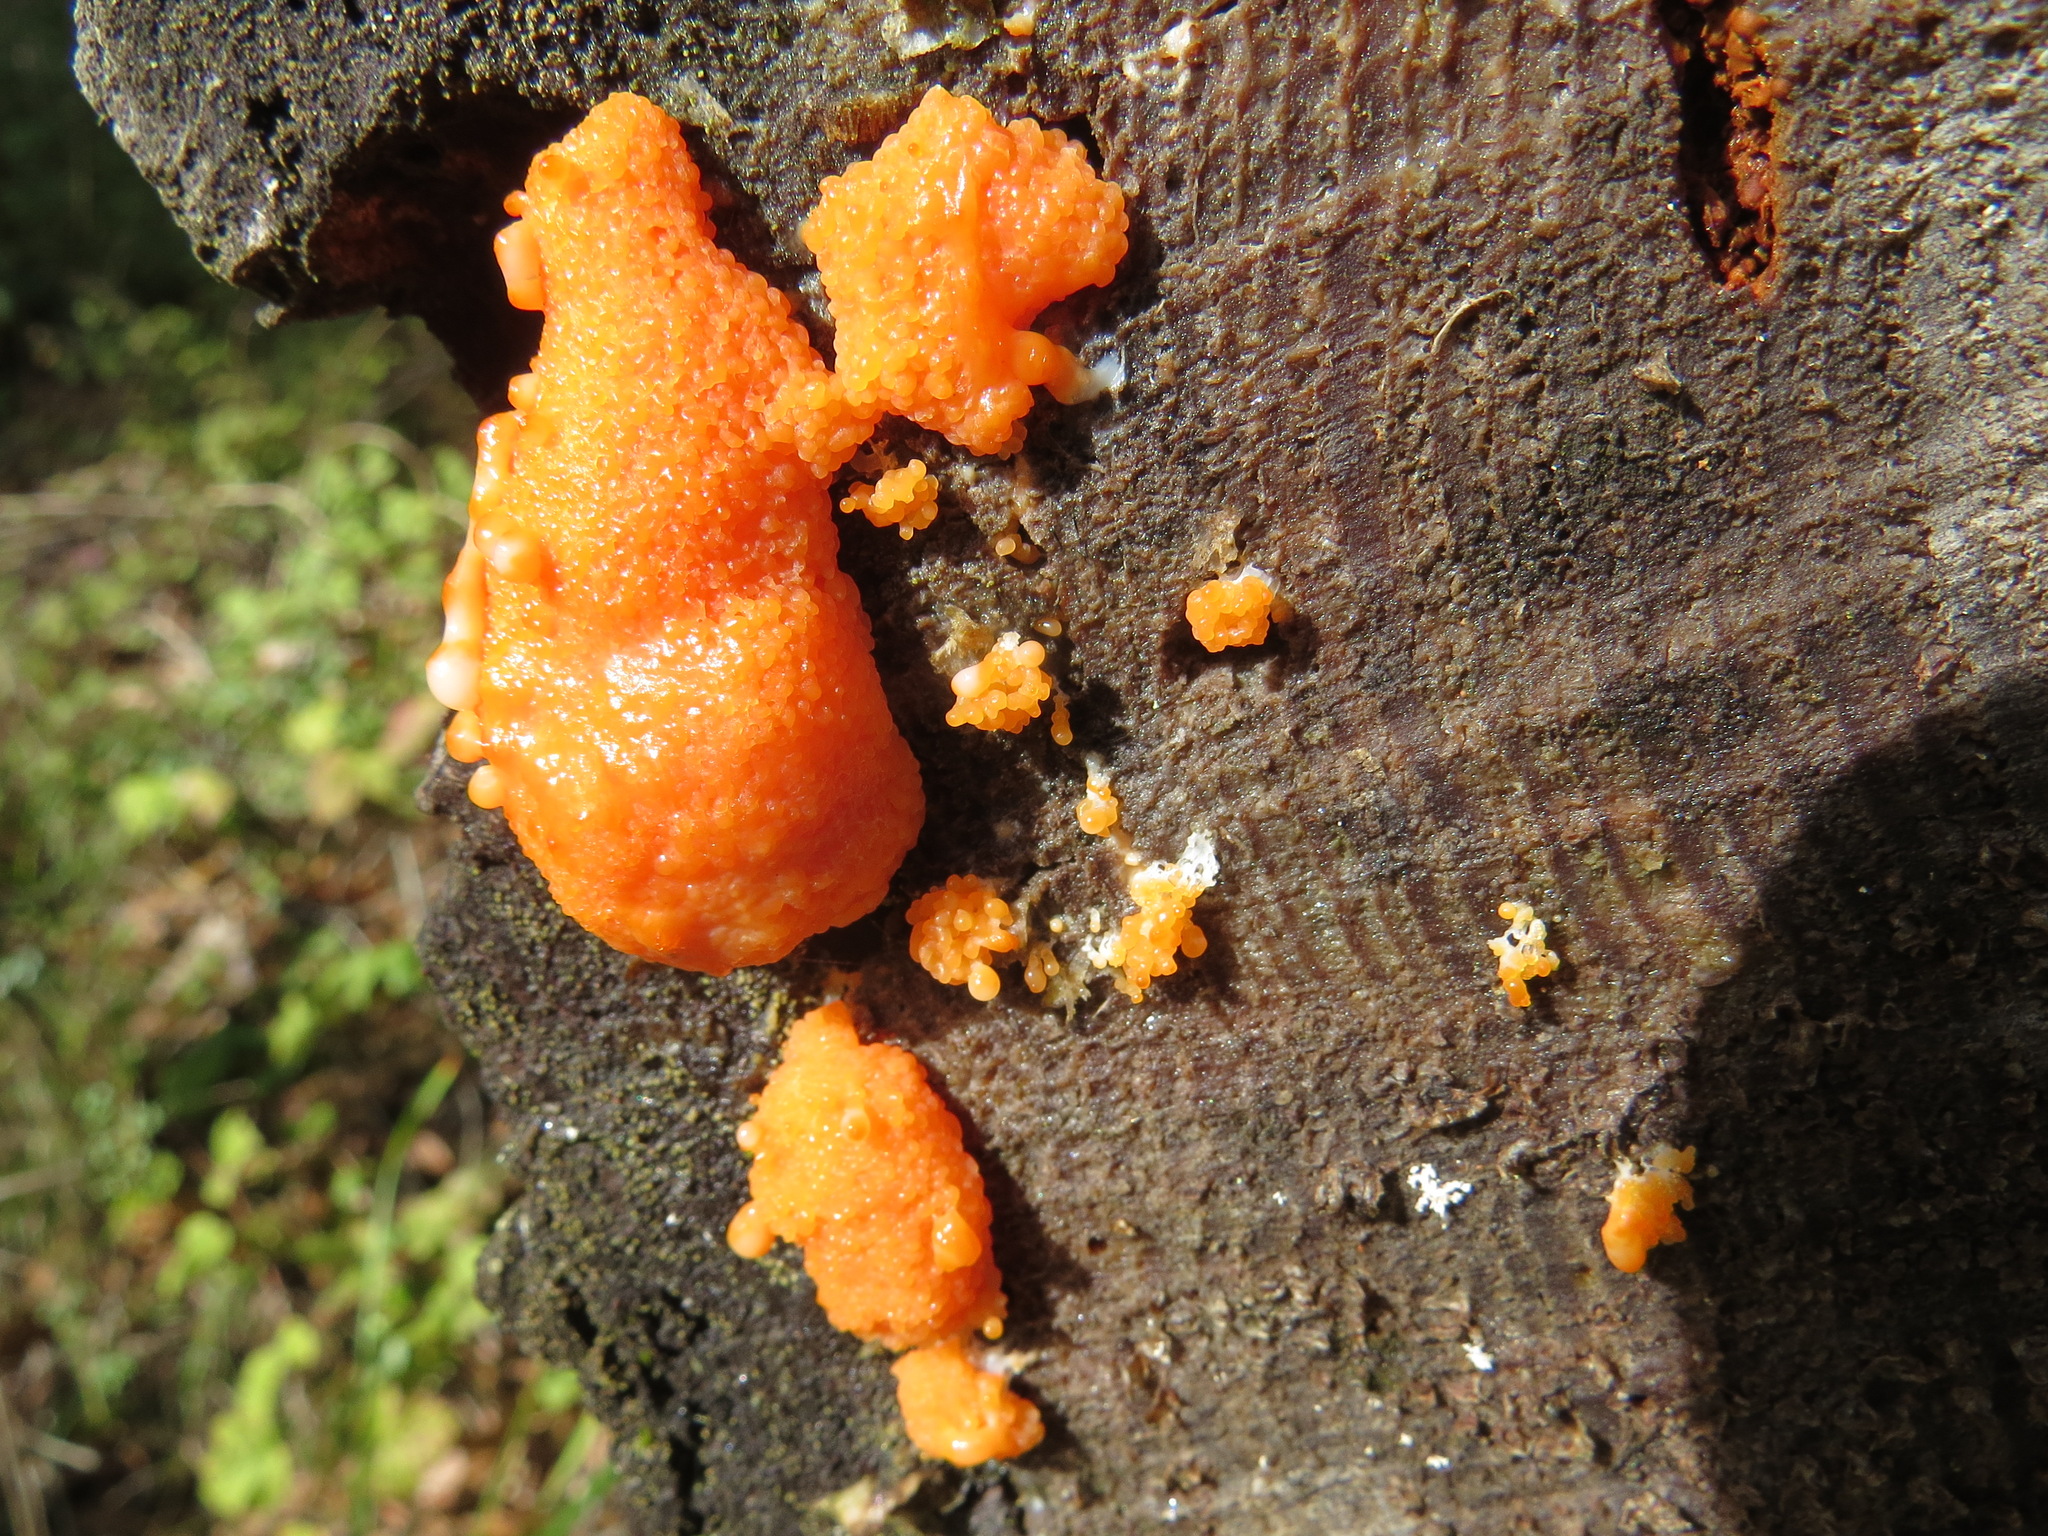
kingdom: Protozoa
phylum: Mycetozoa
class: Myxomycetes
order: Cribrariales
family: Tubiferaceae
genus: Tubifera
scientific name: Tubifera montana
